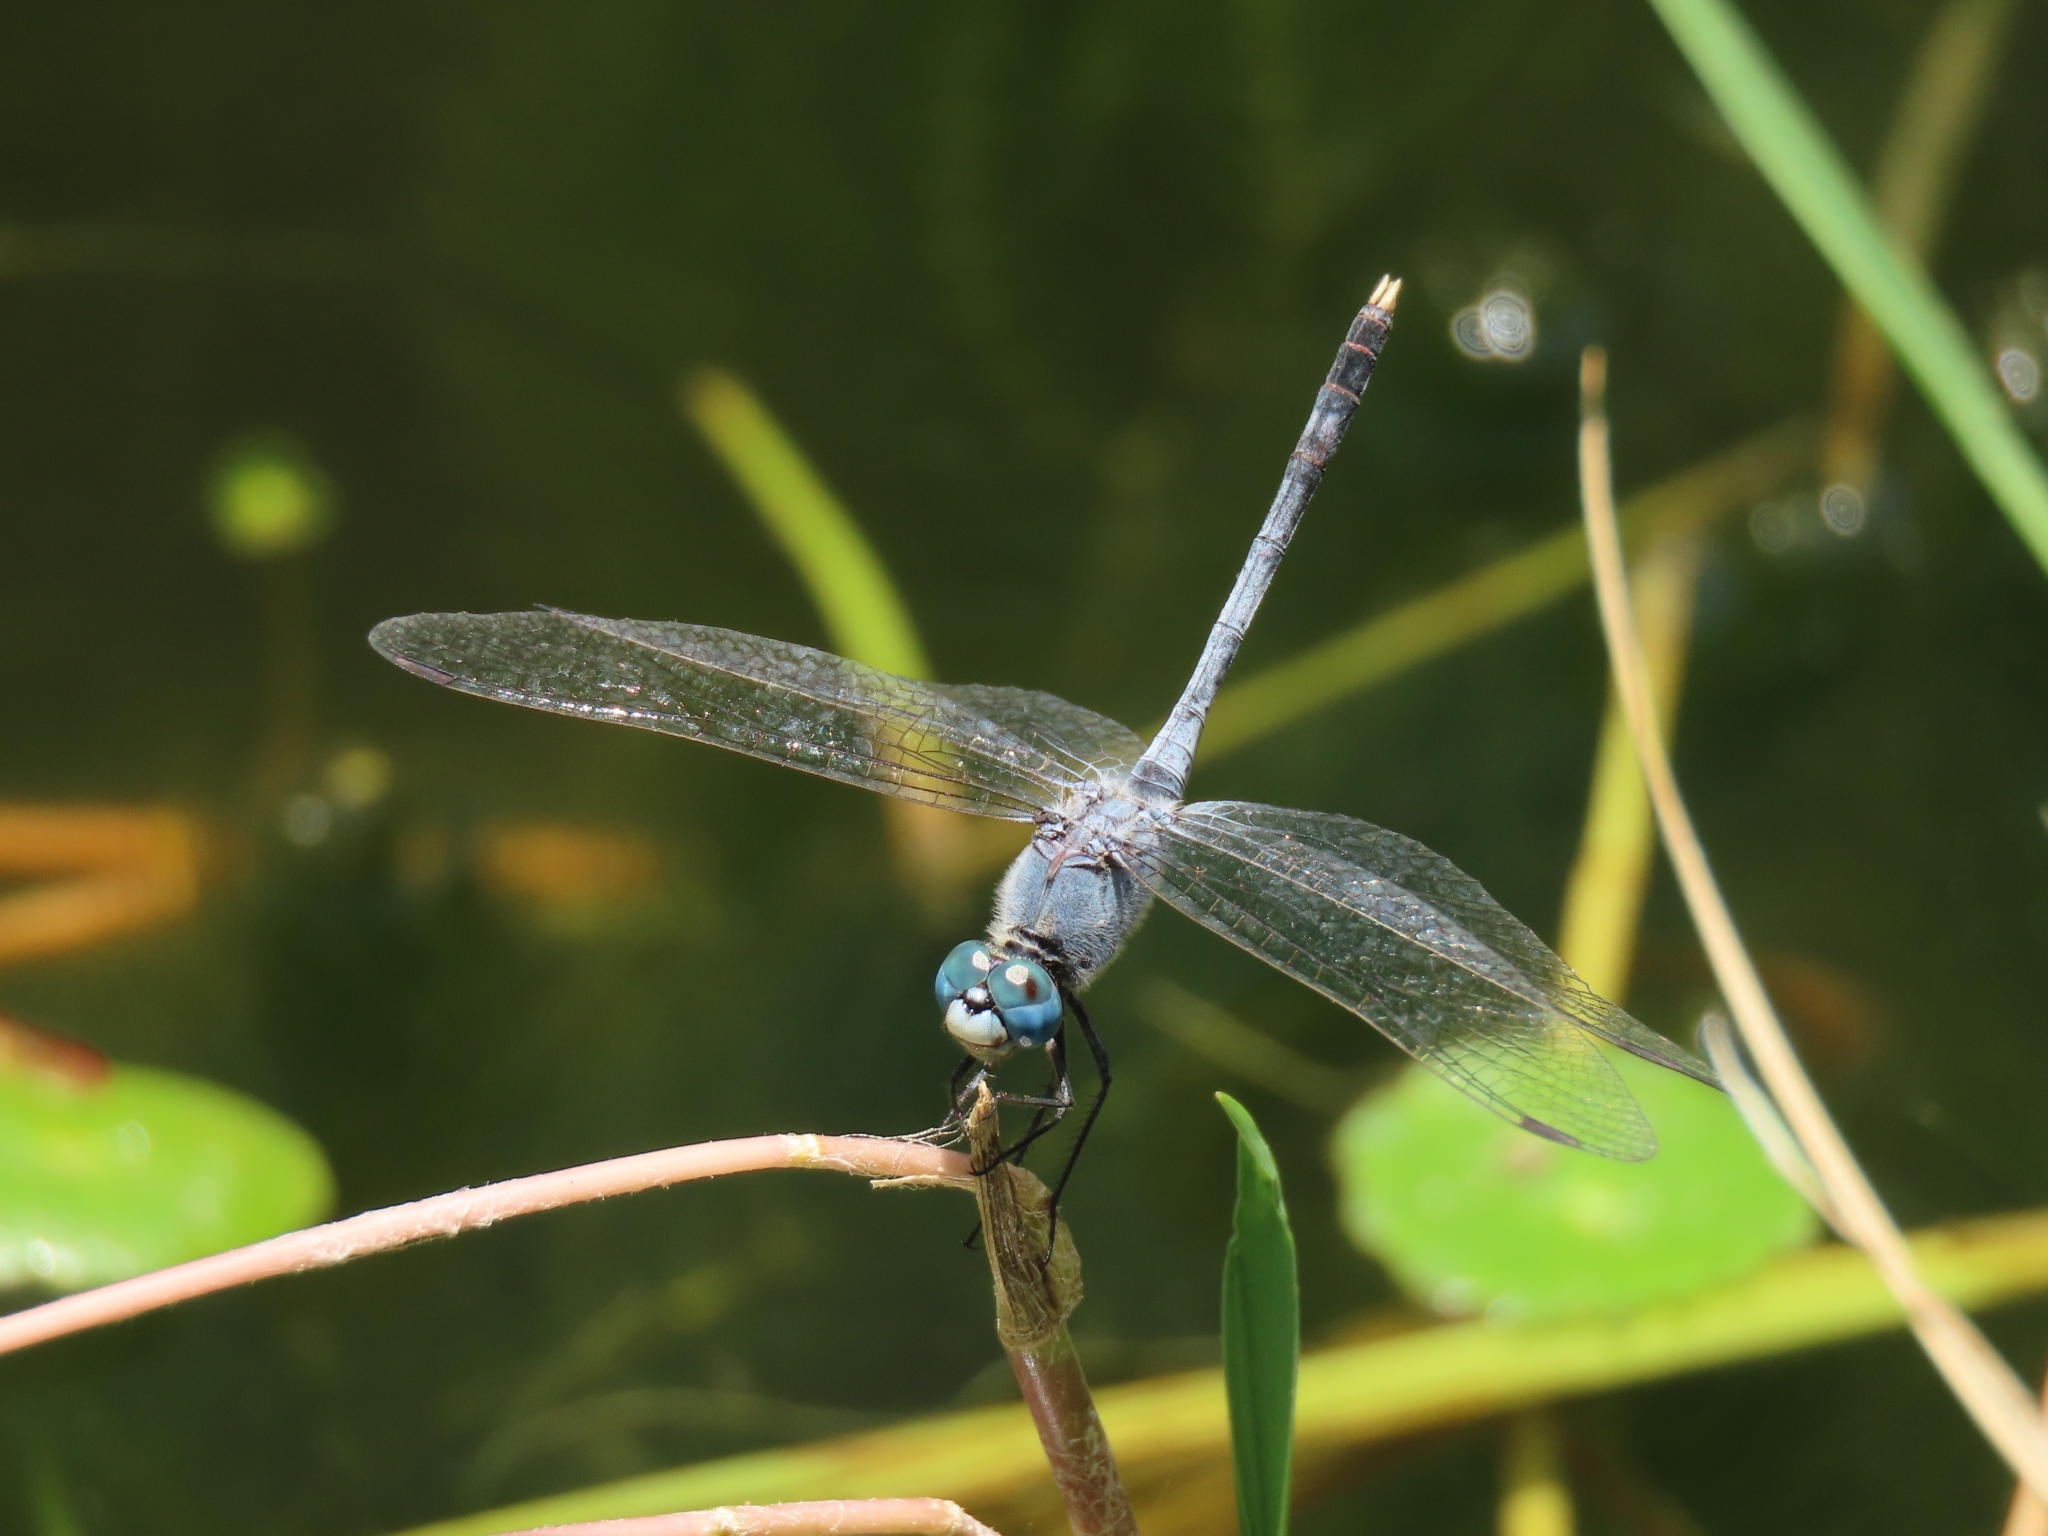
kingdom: Animalia
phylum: Arthropoda
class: Insecta
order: Odonata
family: Libellulidae
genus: Diplacodes
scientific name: Diplacodes trivialis
